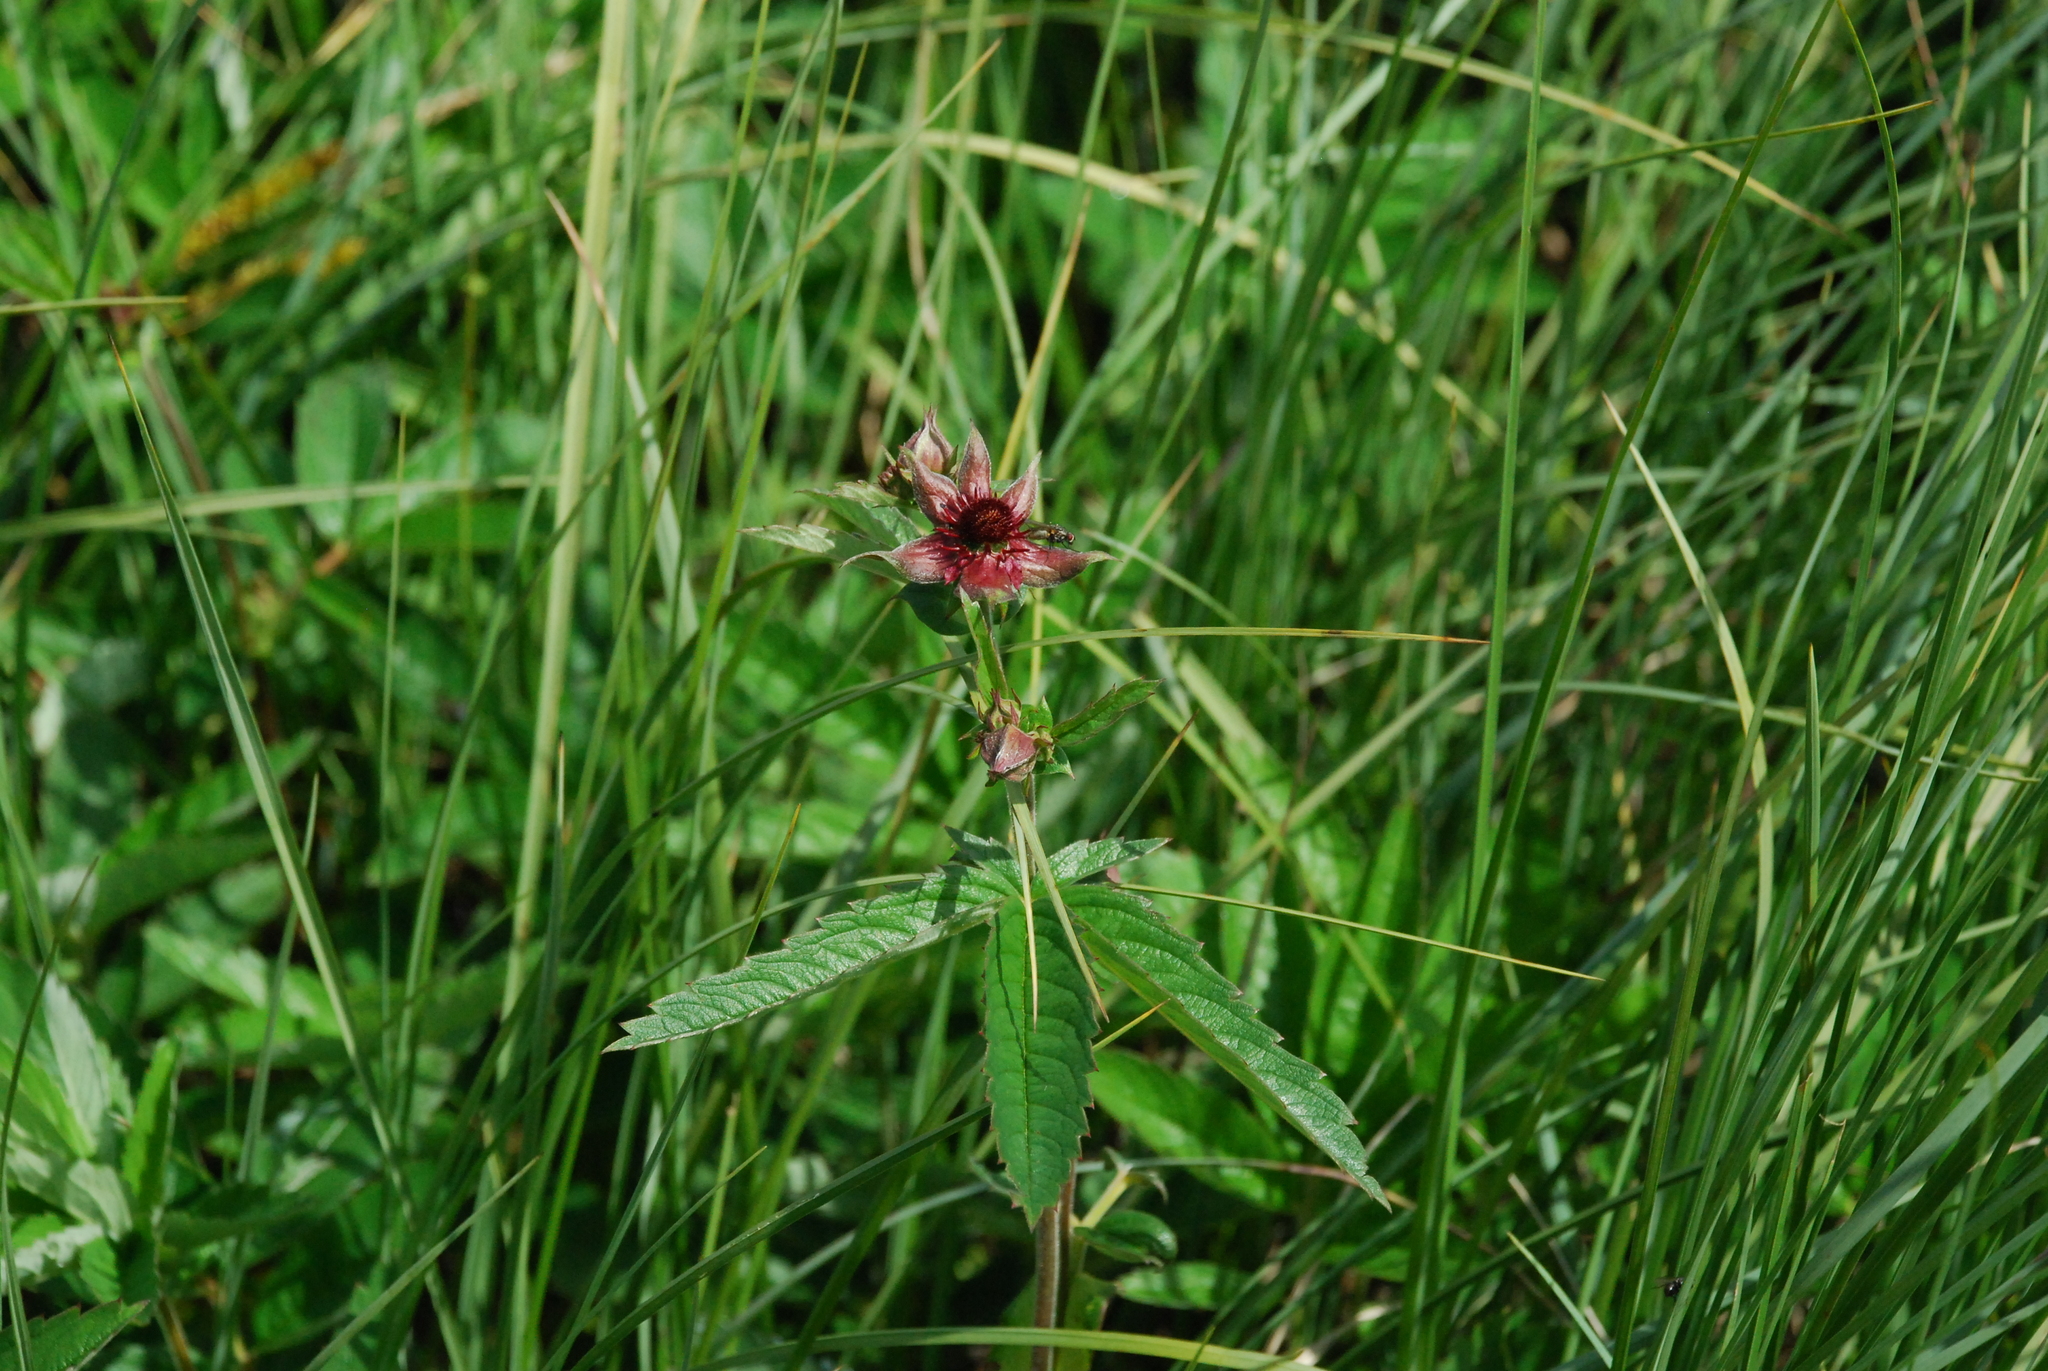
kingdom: Plantae
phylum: Tracheophyta
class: Magnoliopsida
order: Rosales
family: Rosaceae
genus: Comarum
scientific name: Comarum palustre
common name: Marsh cinquefoil
